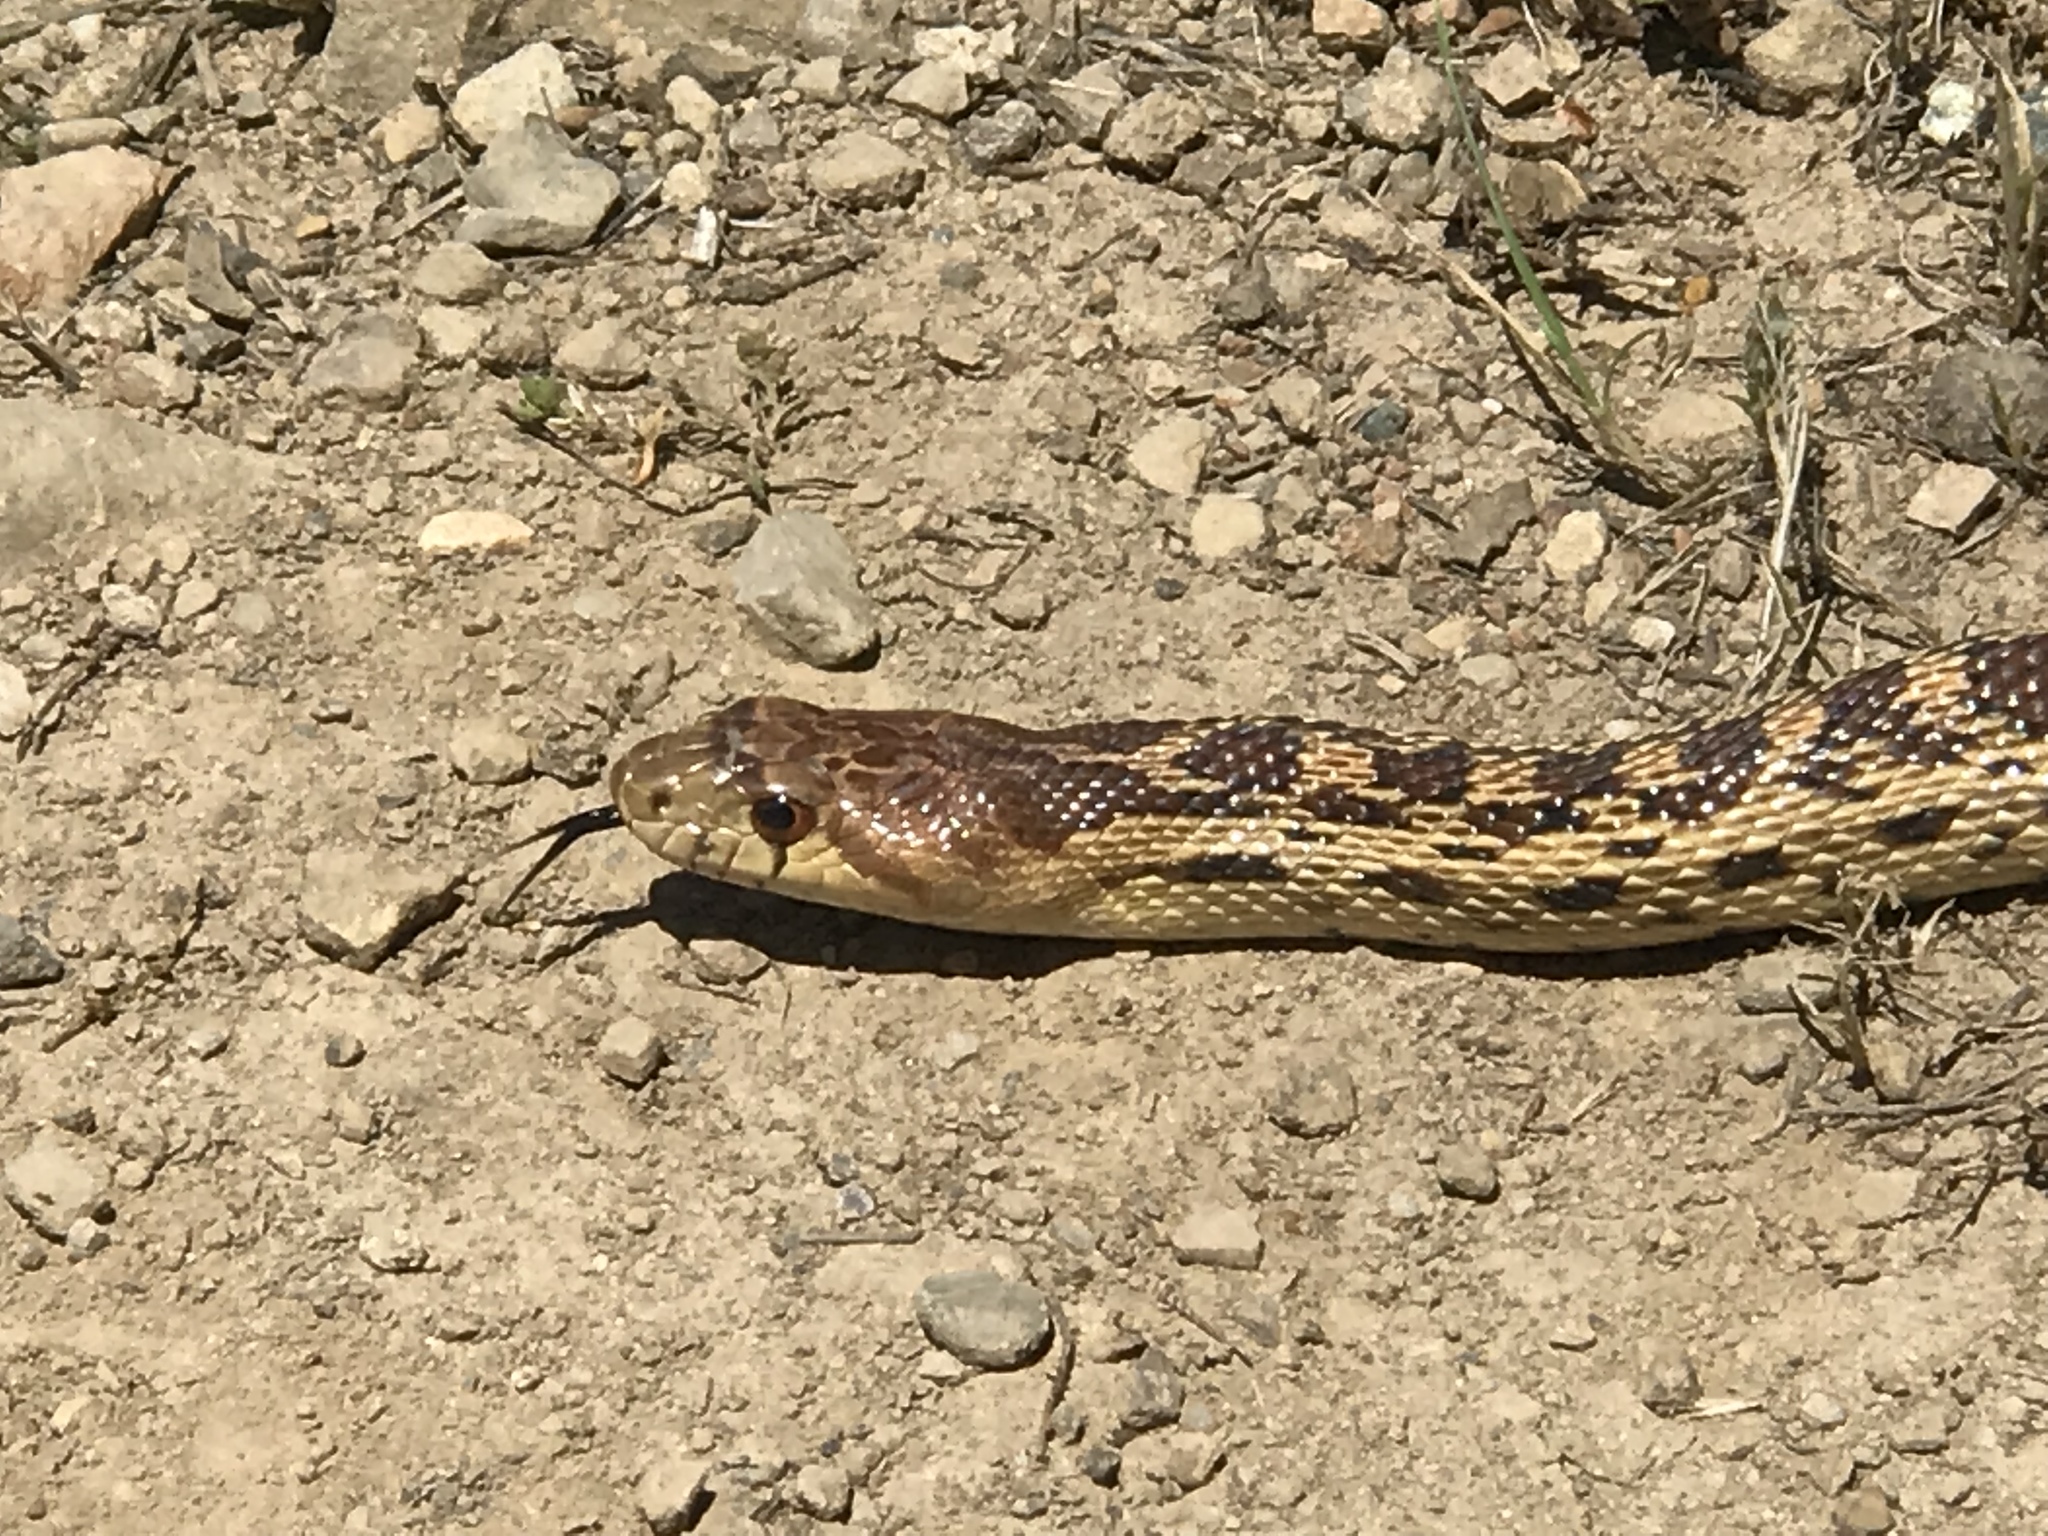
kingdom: Animalia
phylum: Chordata
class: Squamata
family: Colubridae
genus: Pituophis
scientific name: Pituophis catenifer
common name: Gopher snake
